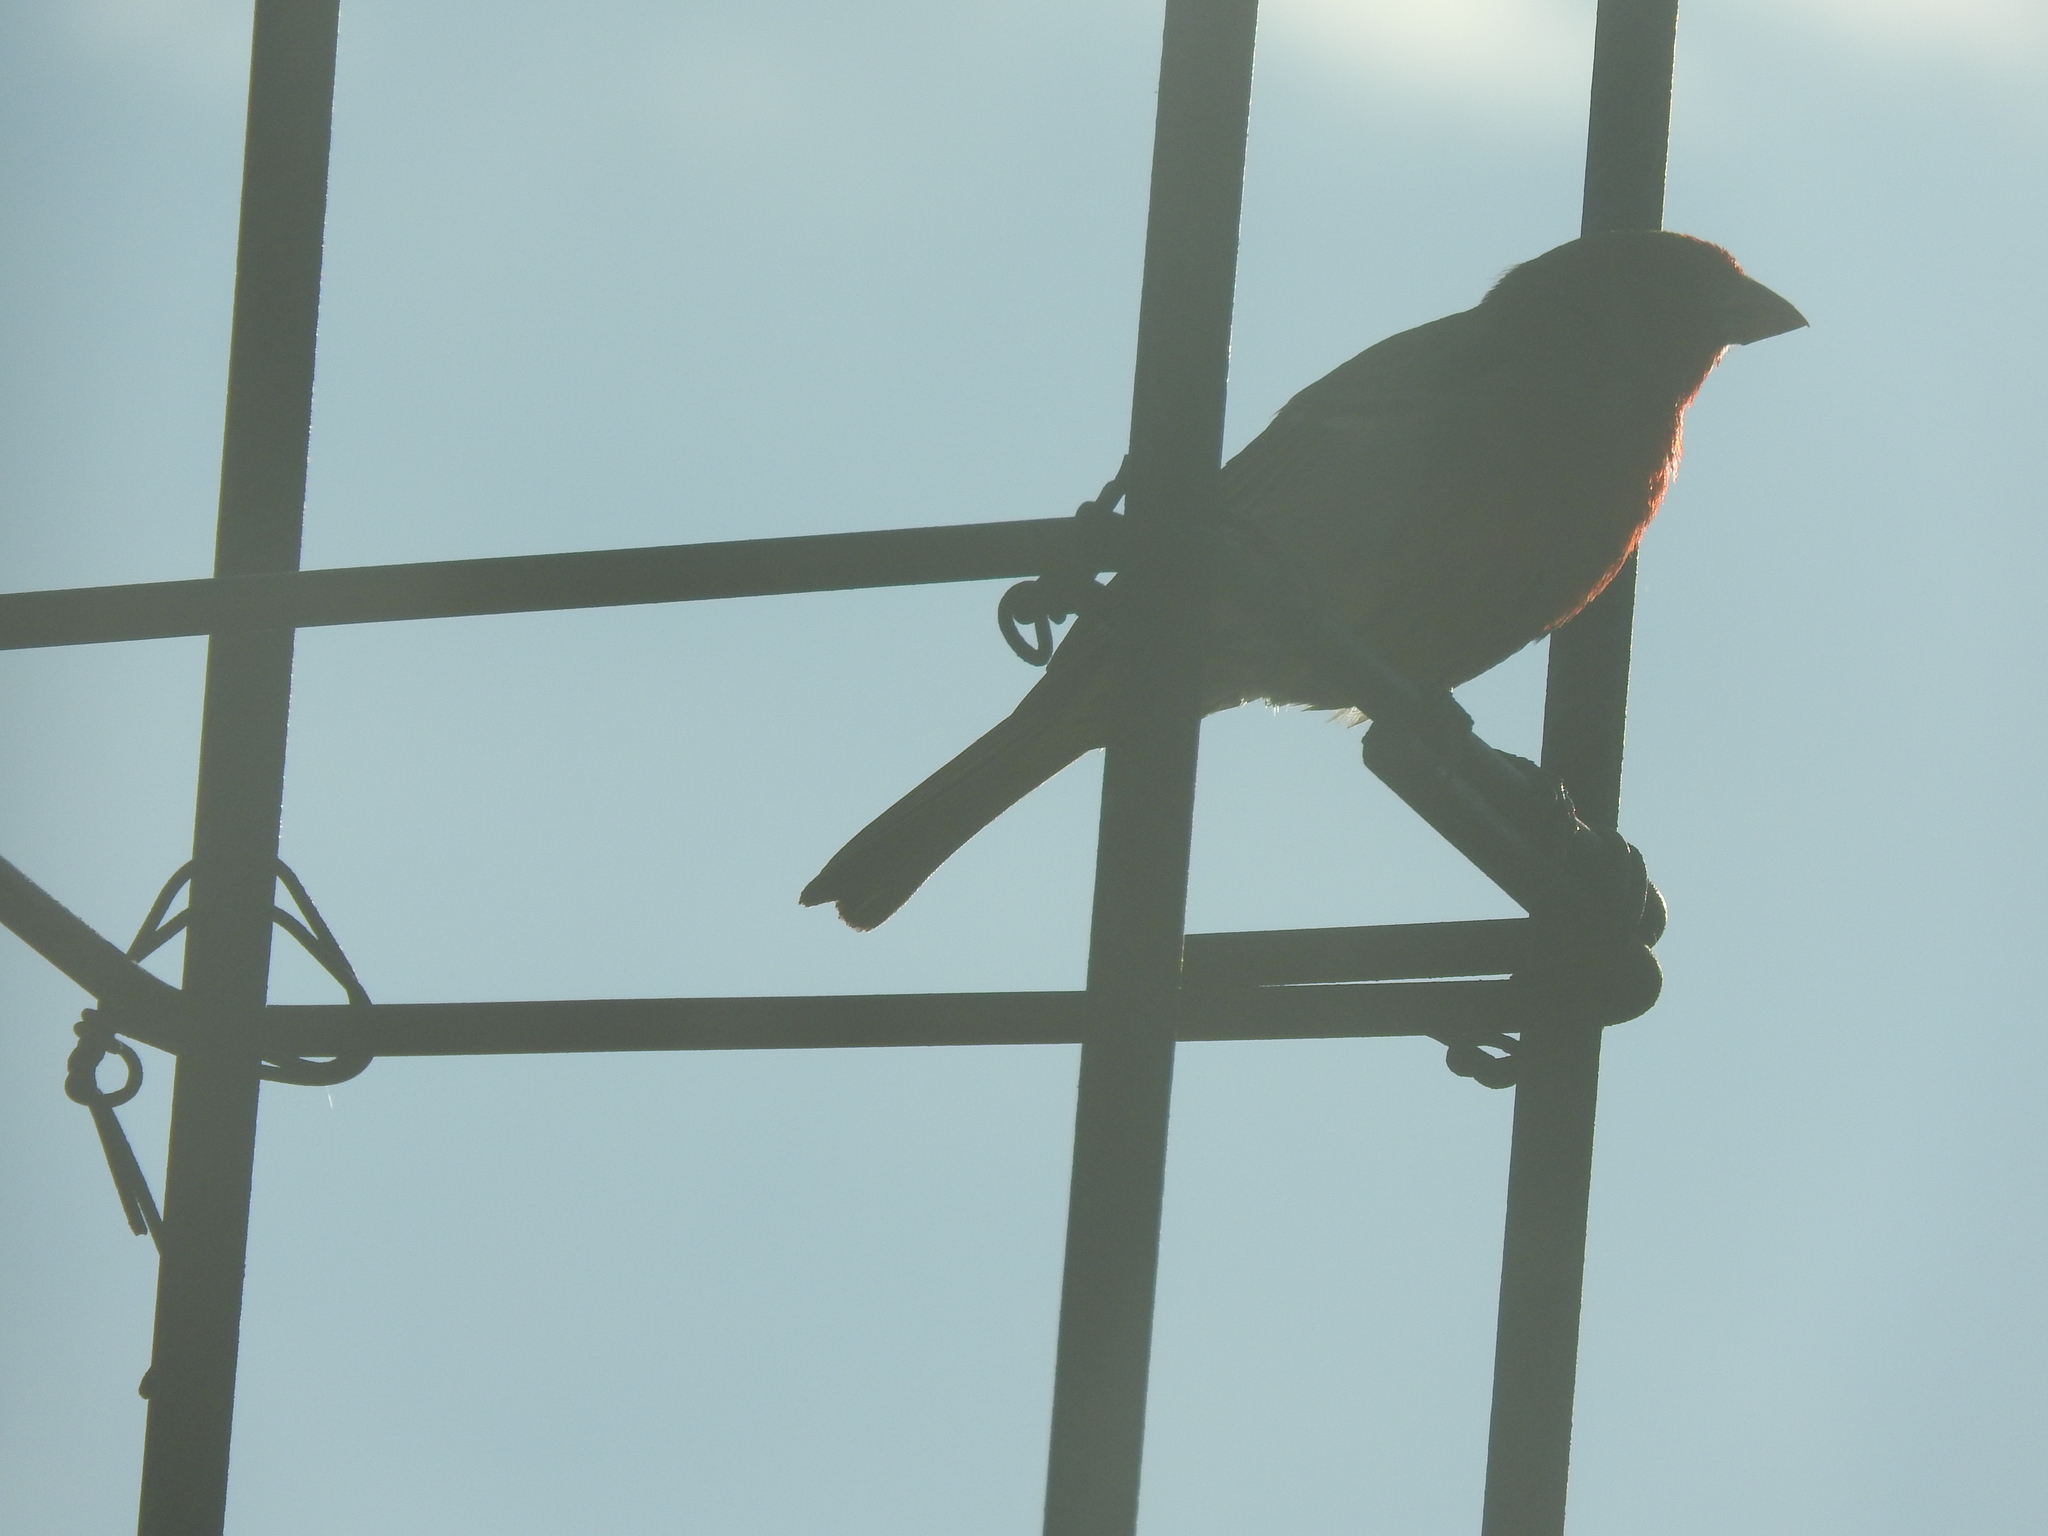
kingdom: Animalia
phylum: Chordata
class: Aves
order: Passeriformes
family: Fringillidae
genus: Haemorhous
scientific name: Haemorhous mexicanus
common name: House finch
